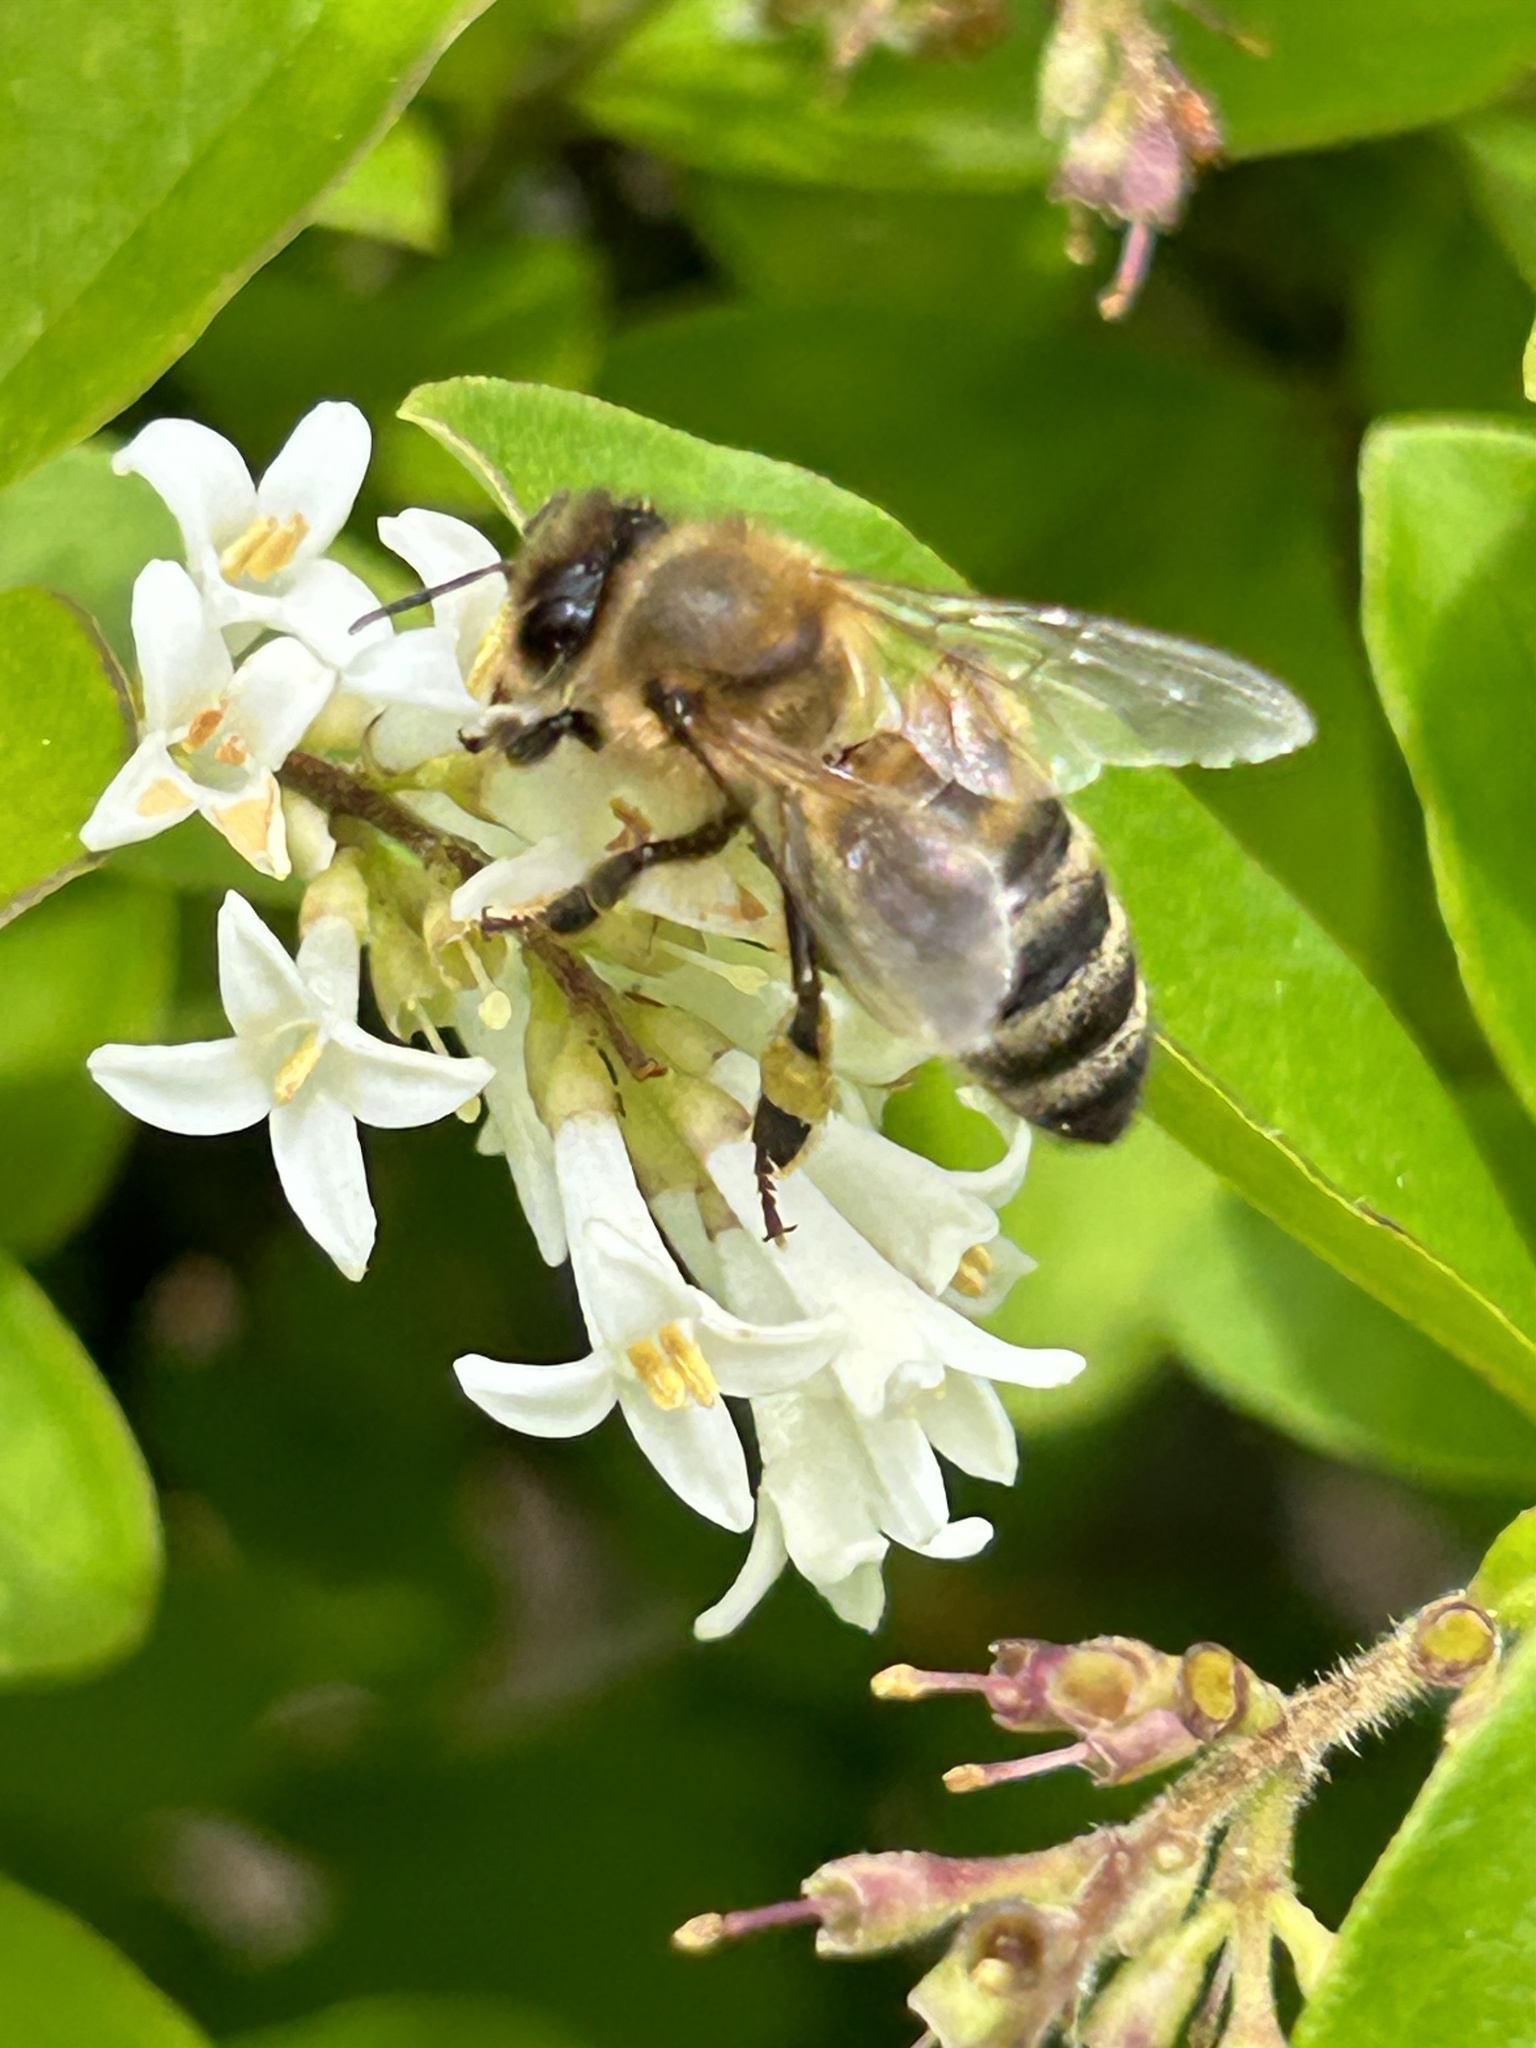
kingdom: Animalia
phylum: Arthropoda
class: Insecta
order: Hymenoptera
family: Apidae
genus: Apis
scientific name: Apis mellifera
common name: Honey bee
